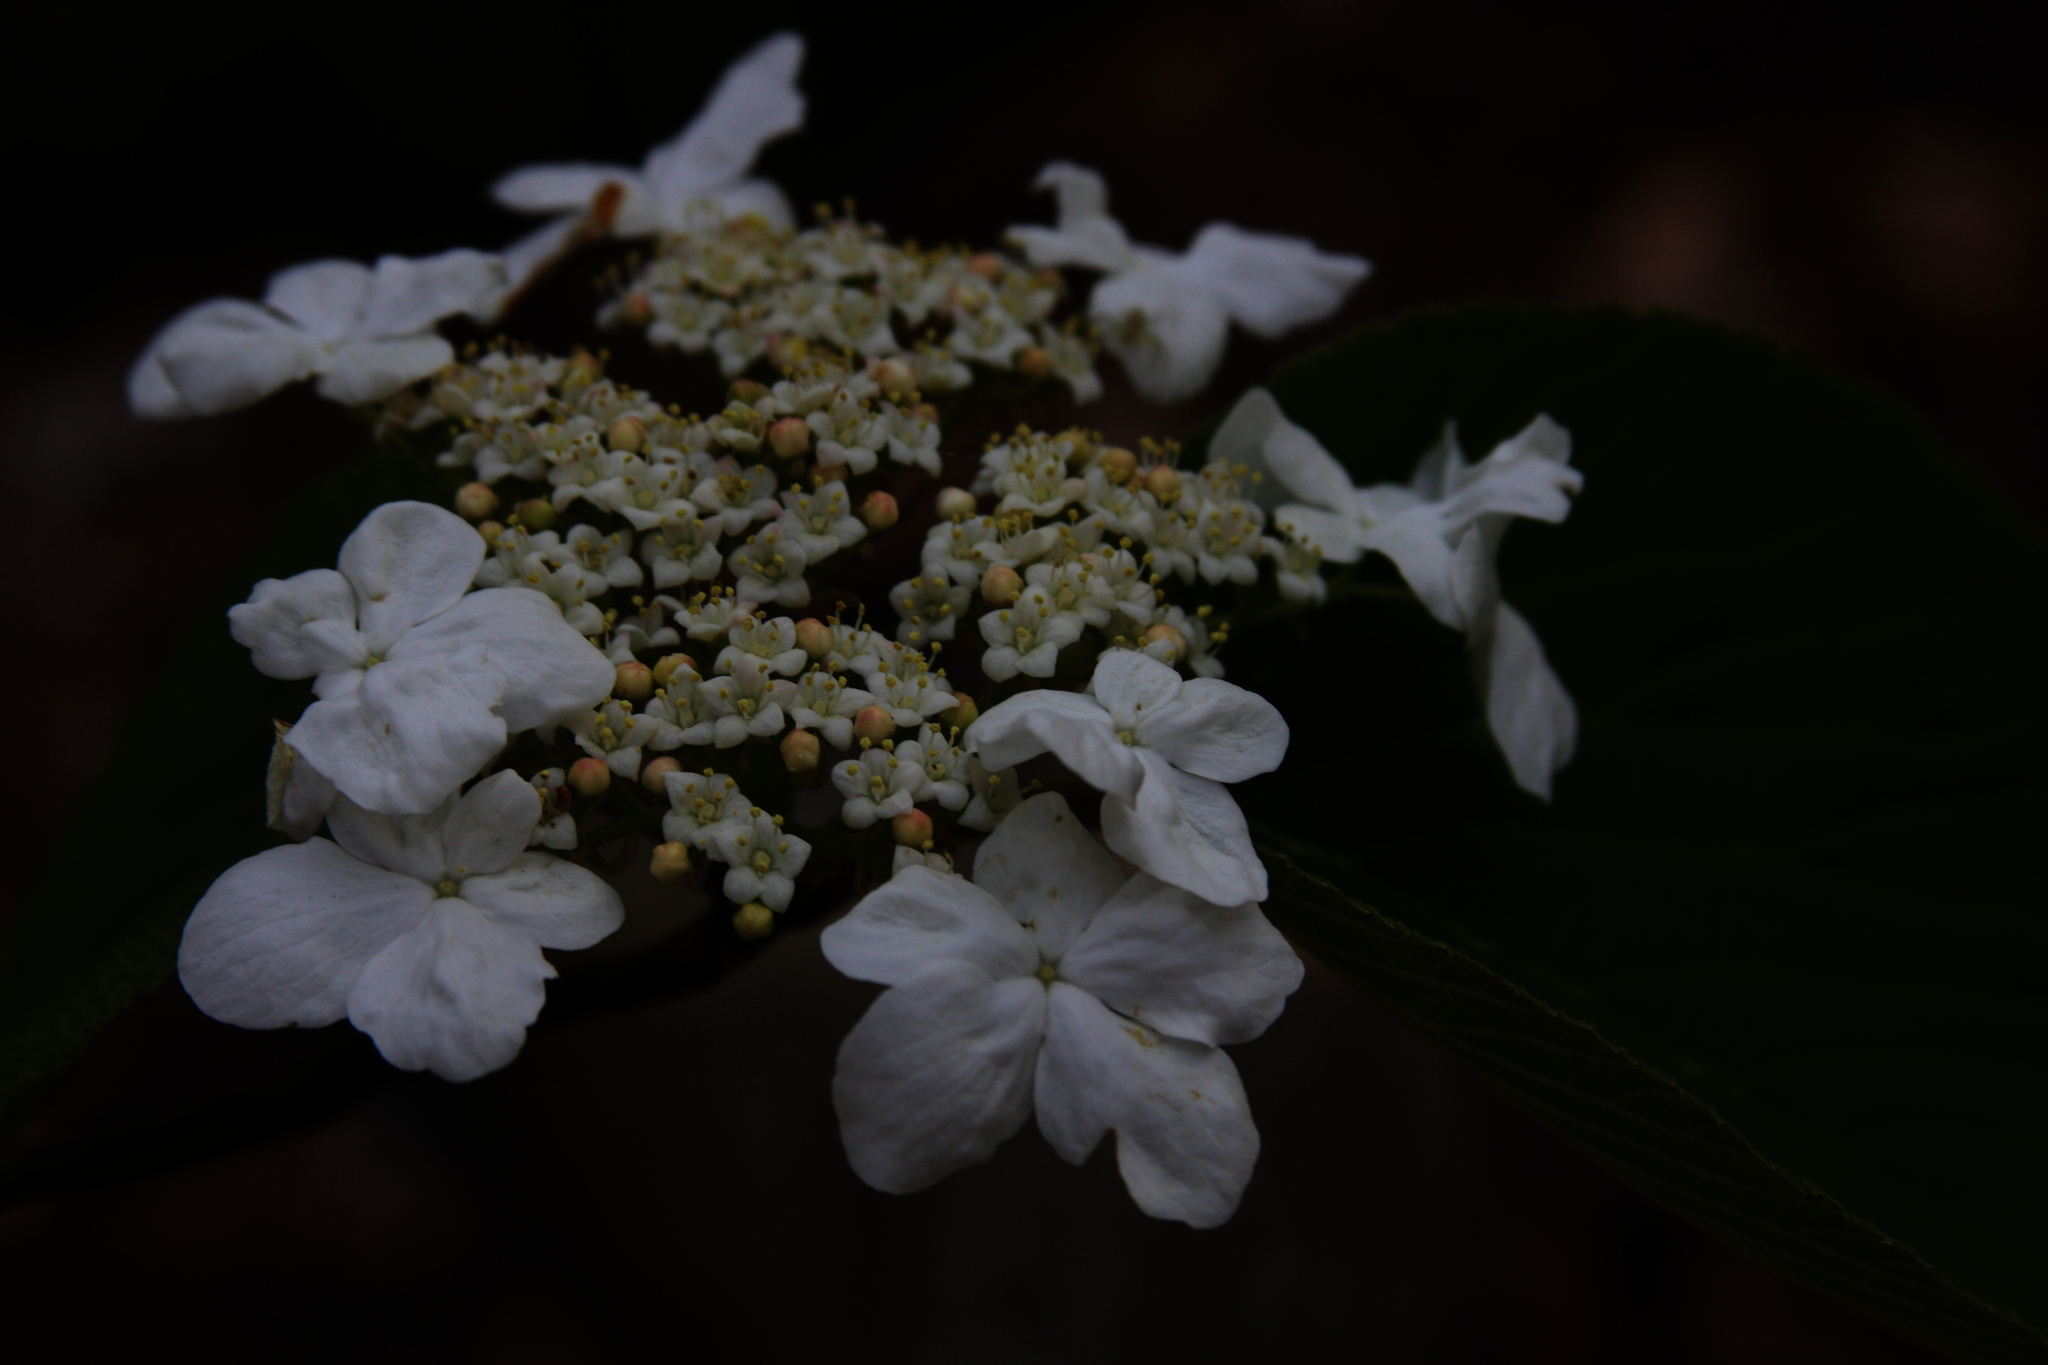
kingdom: Plantae
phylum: Tracheophyta
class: Magnoliopsida
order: Dipsacales
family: Viburnaceae
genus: Viburnum
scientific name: Viburnum lantanoides
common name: Hobblebush
